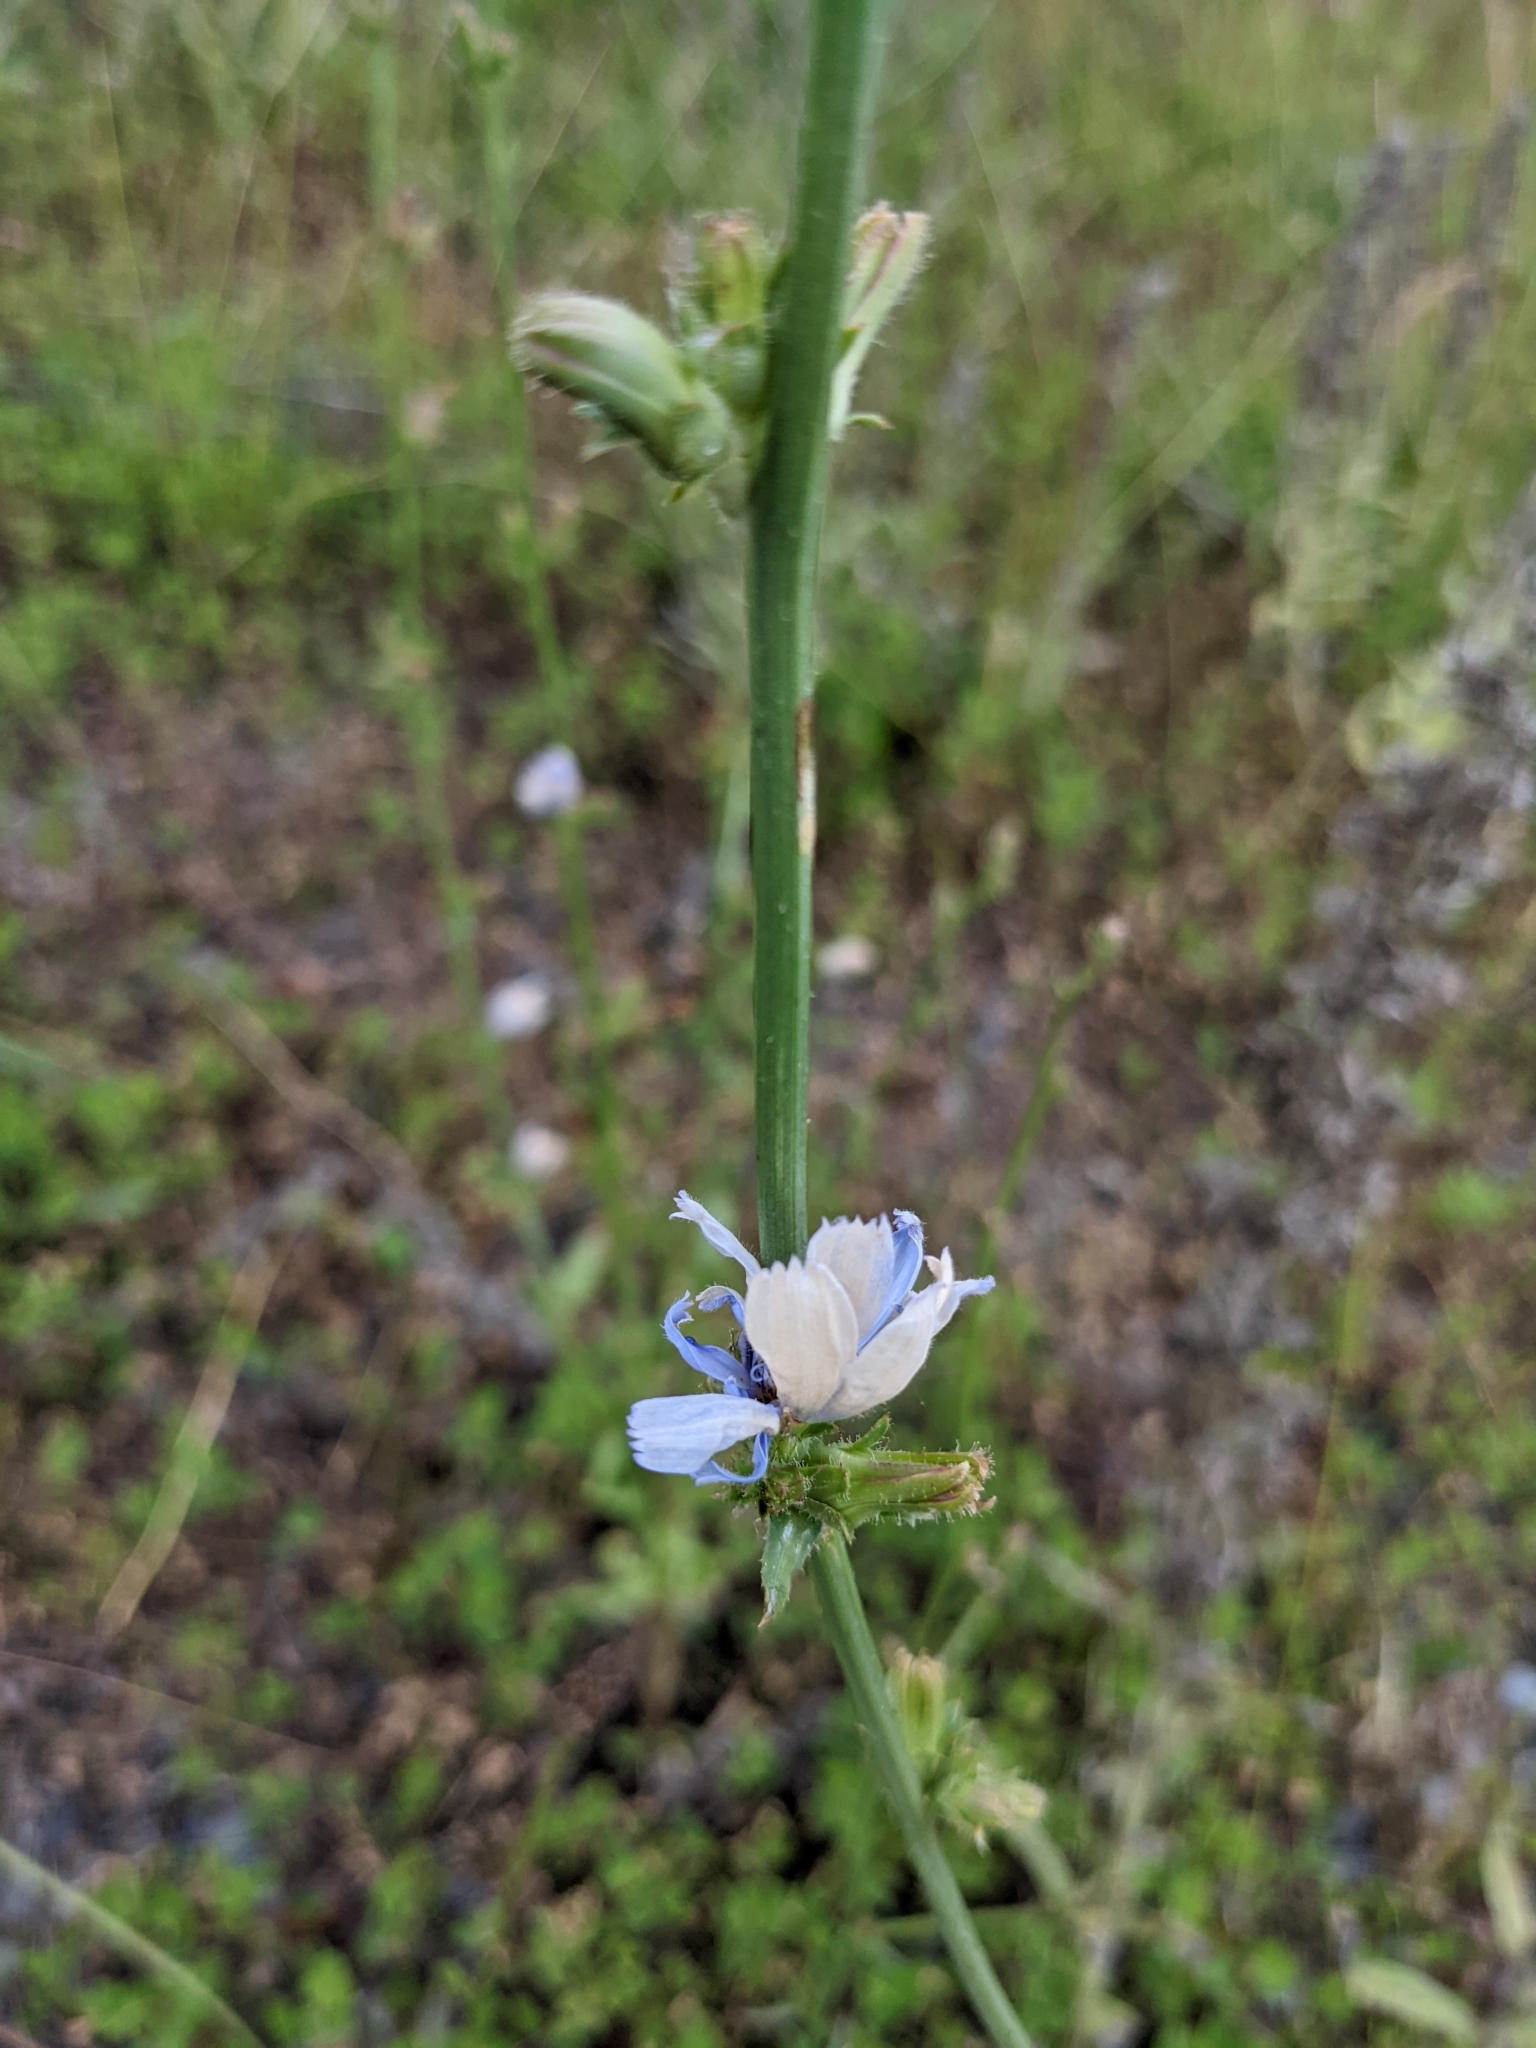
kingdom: Plantae
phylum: Tracheophyta
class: Magnoliopsida
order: Asterales
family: Asteraceae
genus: Cichorium
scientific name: Cichorium intybus
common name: Chicory
